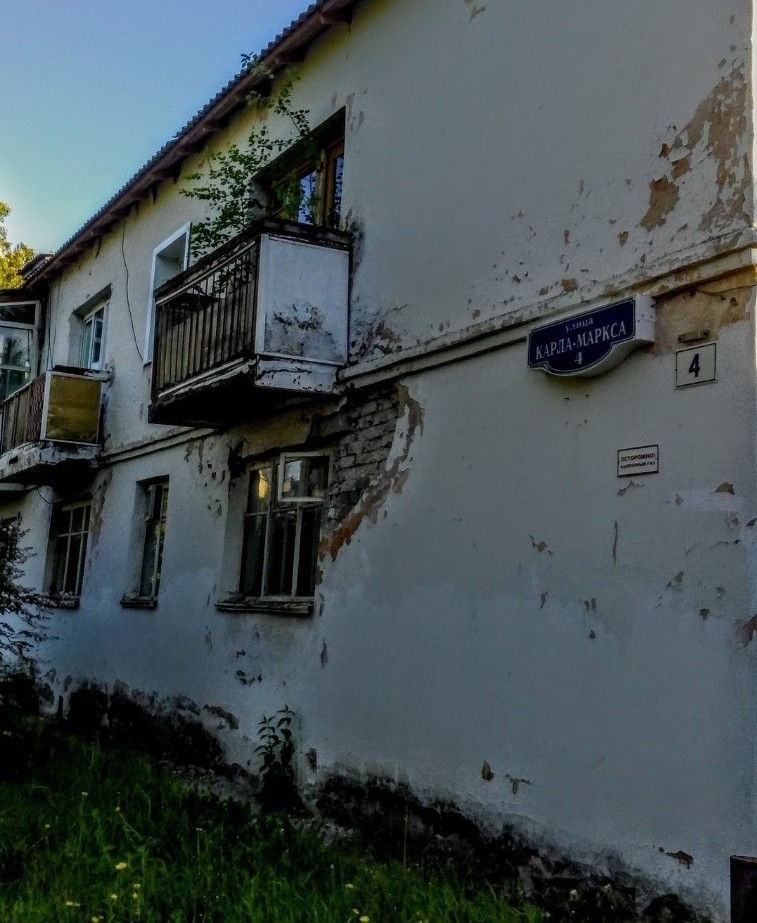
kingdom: Plantae
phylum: Tracheophyta
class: Magnoliopsida
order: Fagales
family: Betulaceae
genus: Betula
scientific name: Betula pendula
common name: Silver birch
